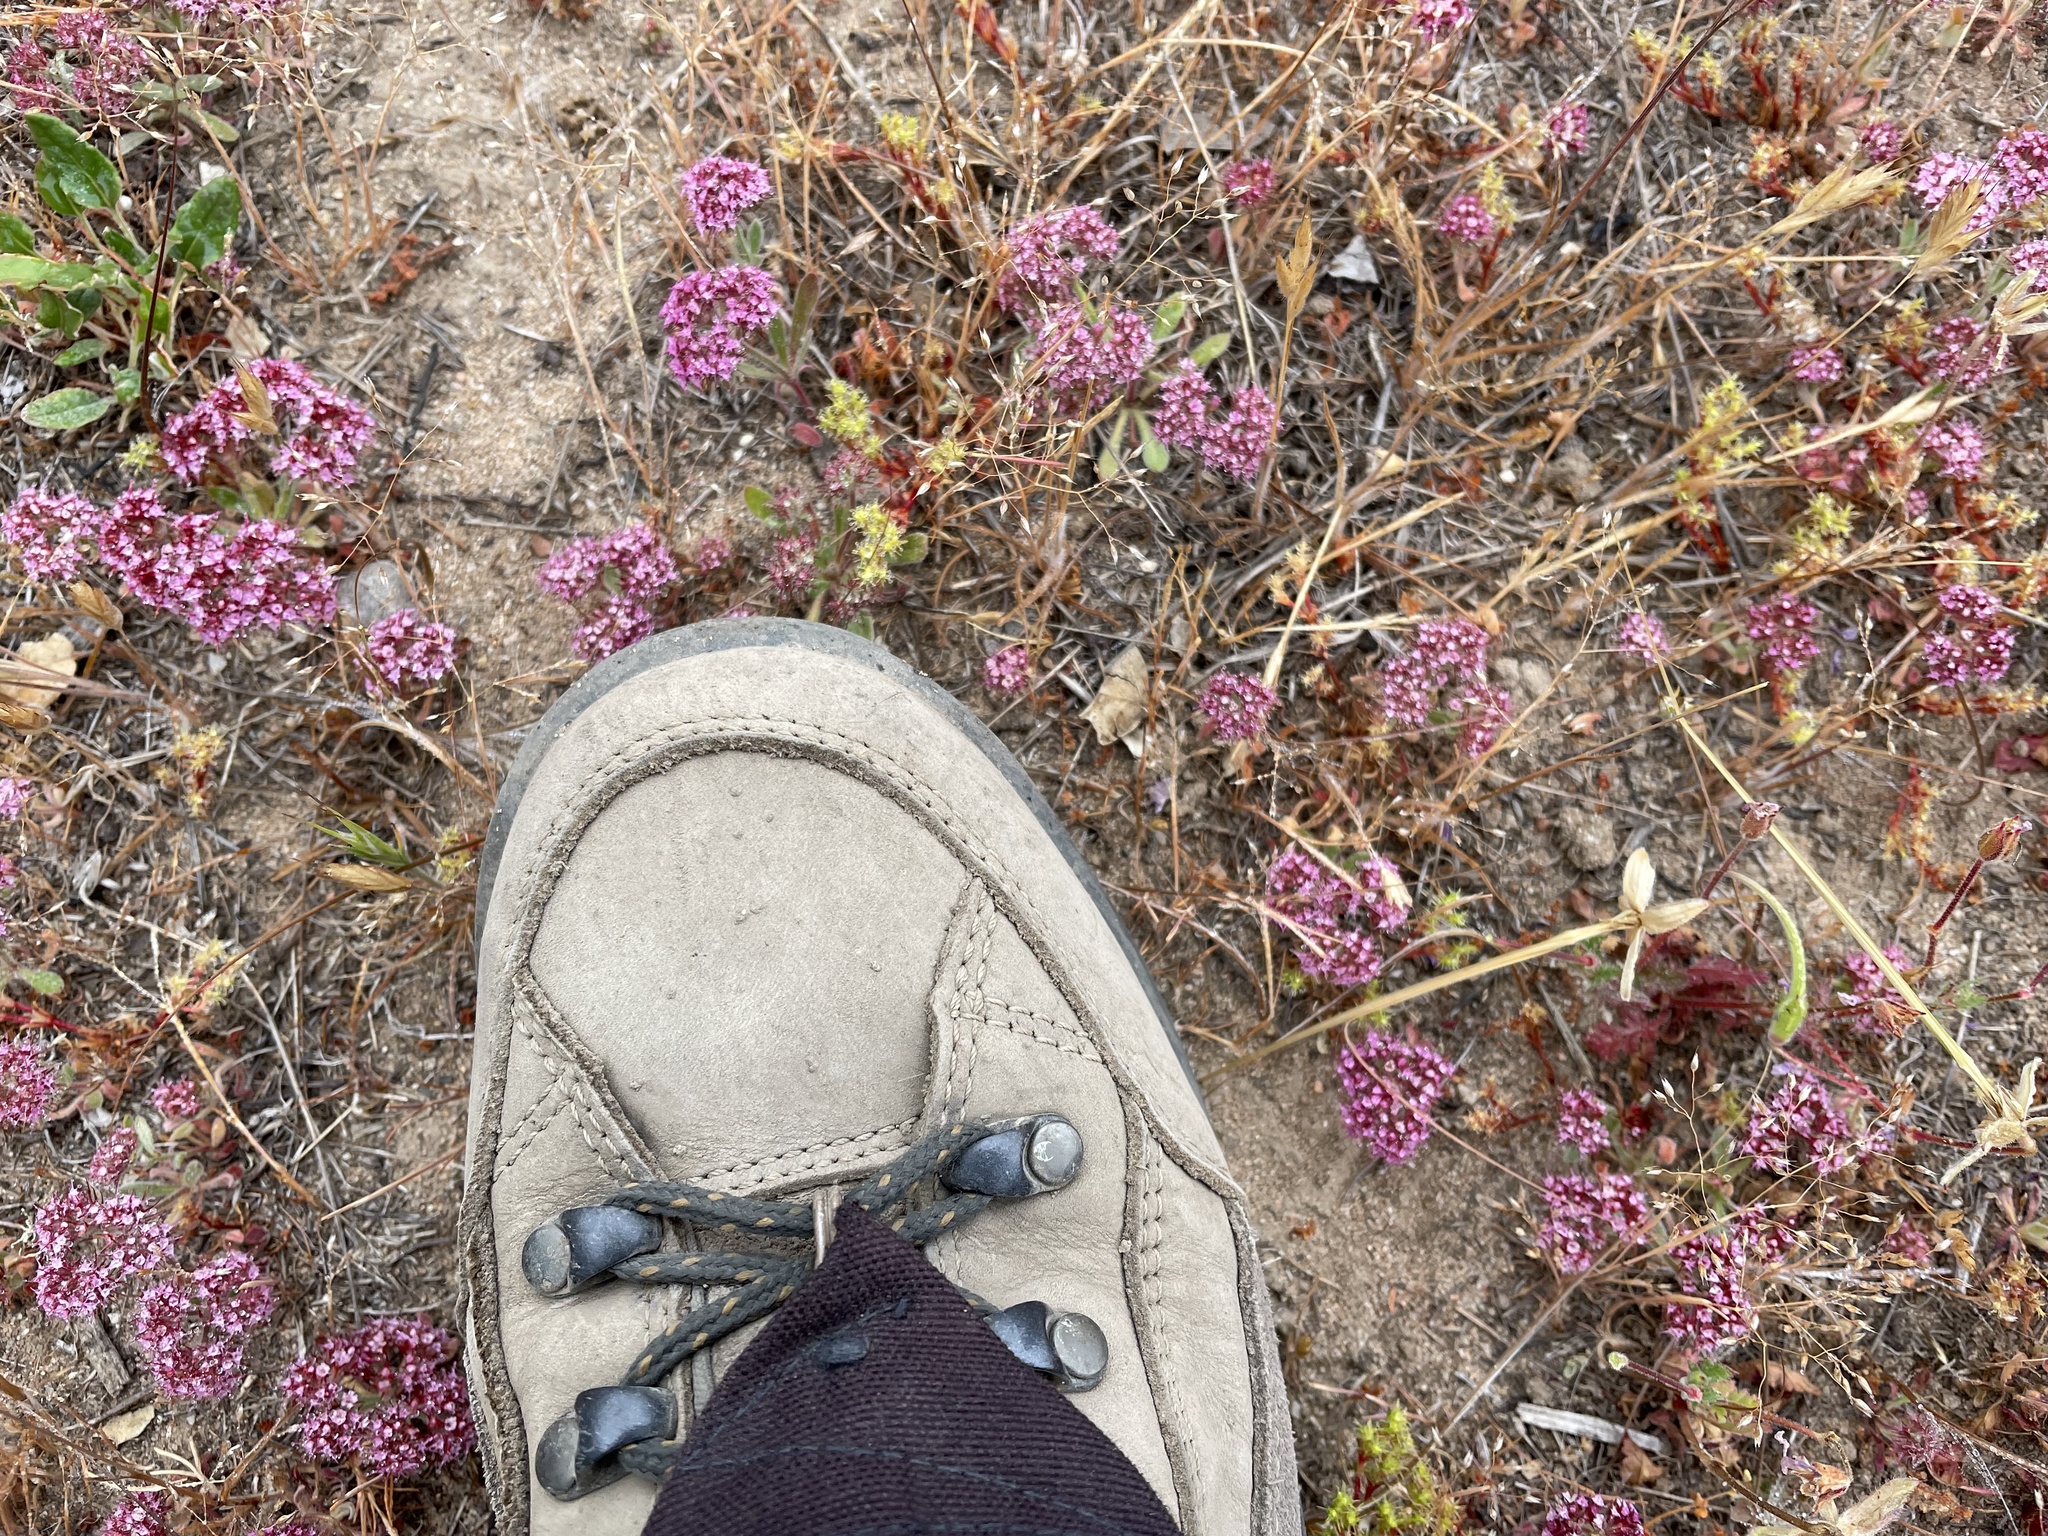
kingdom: Plantae
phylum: Tracheophyta
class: Magnoliopsida
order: Caryophyllales
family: Polygonaceae
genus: Chorizanthe
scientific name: Chorizanthe douglasii
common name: Douglas's spineflower
